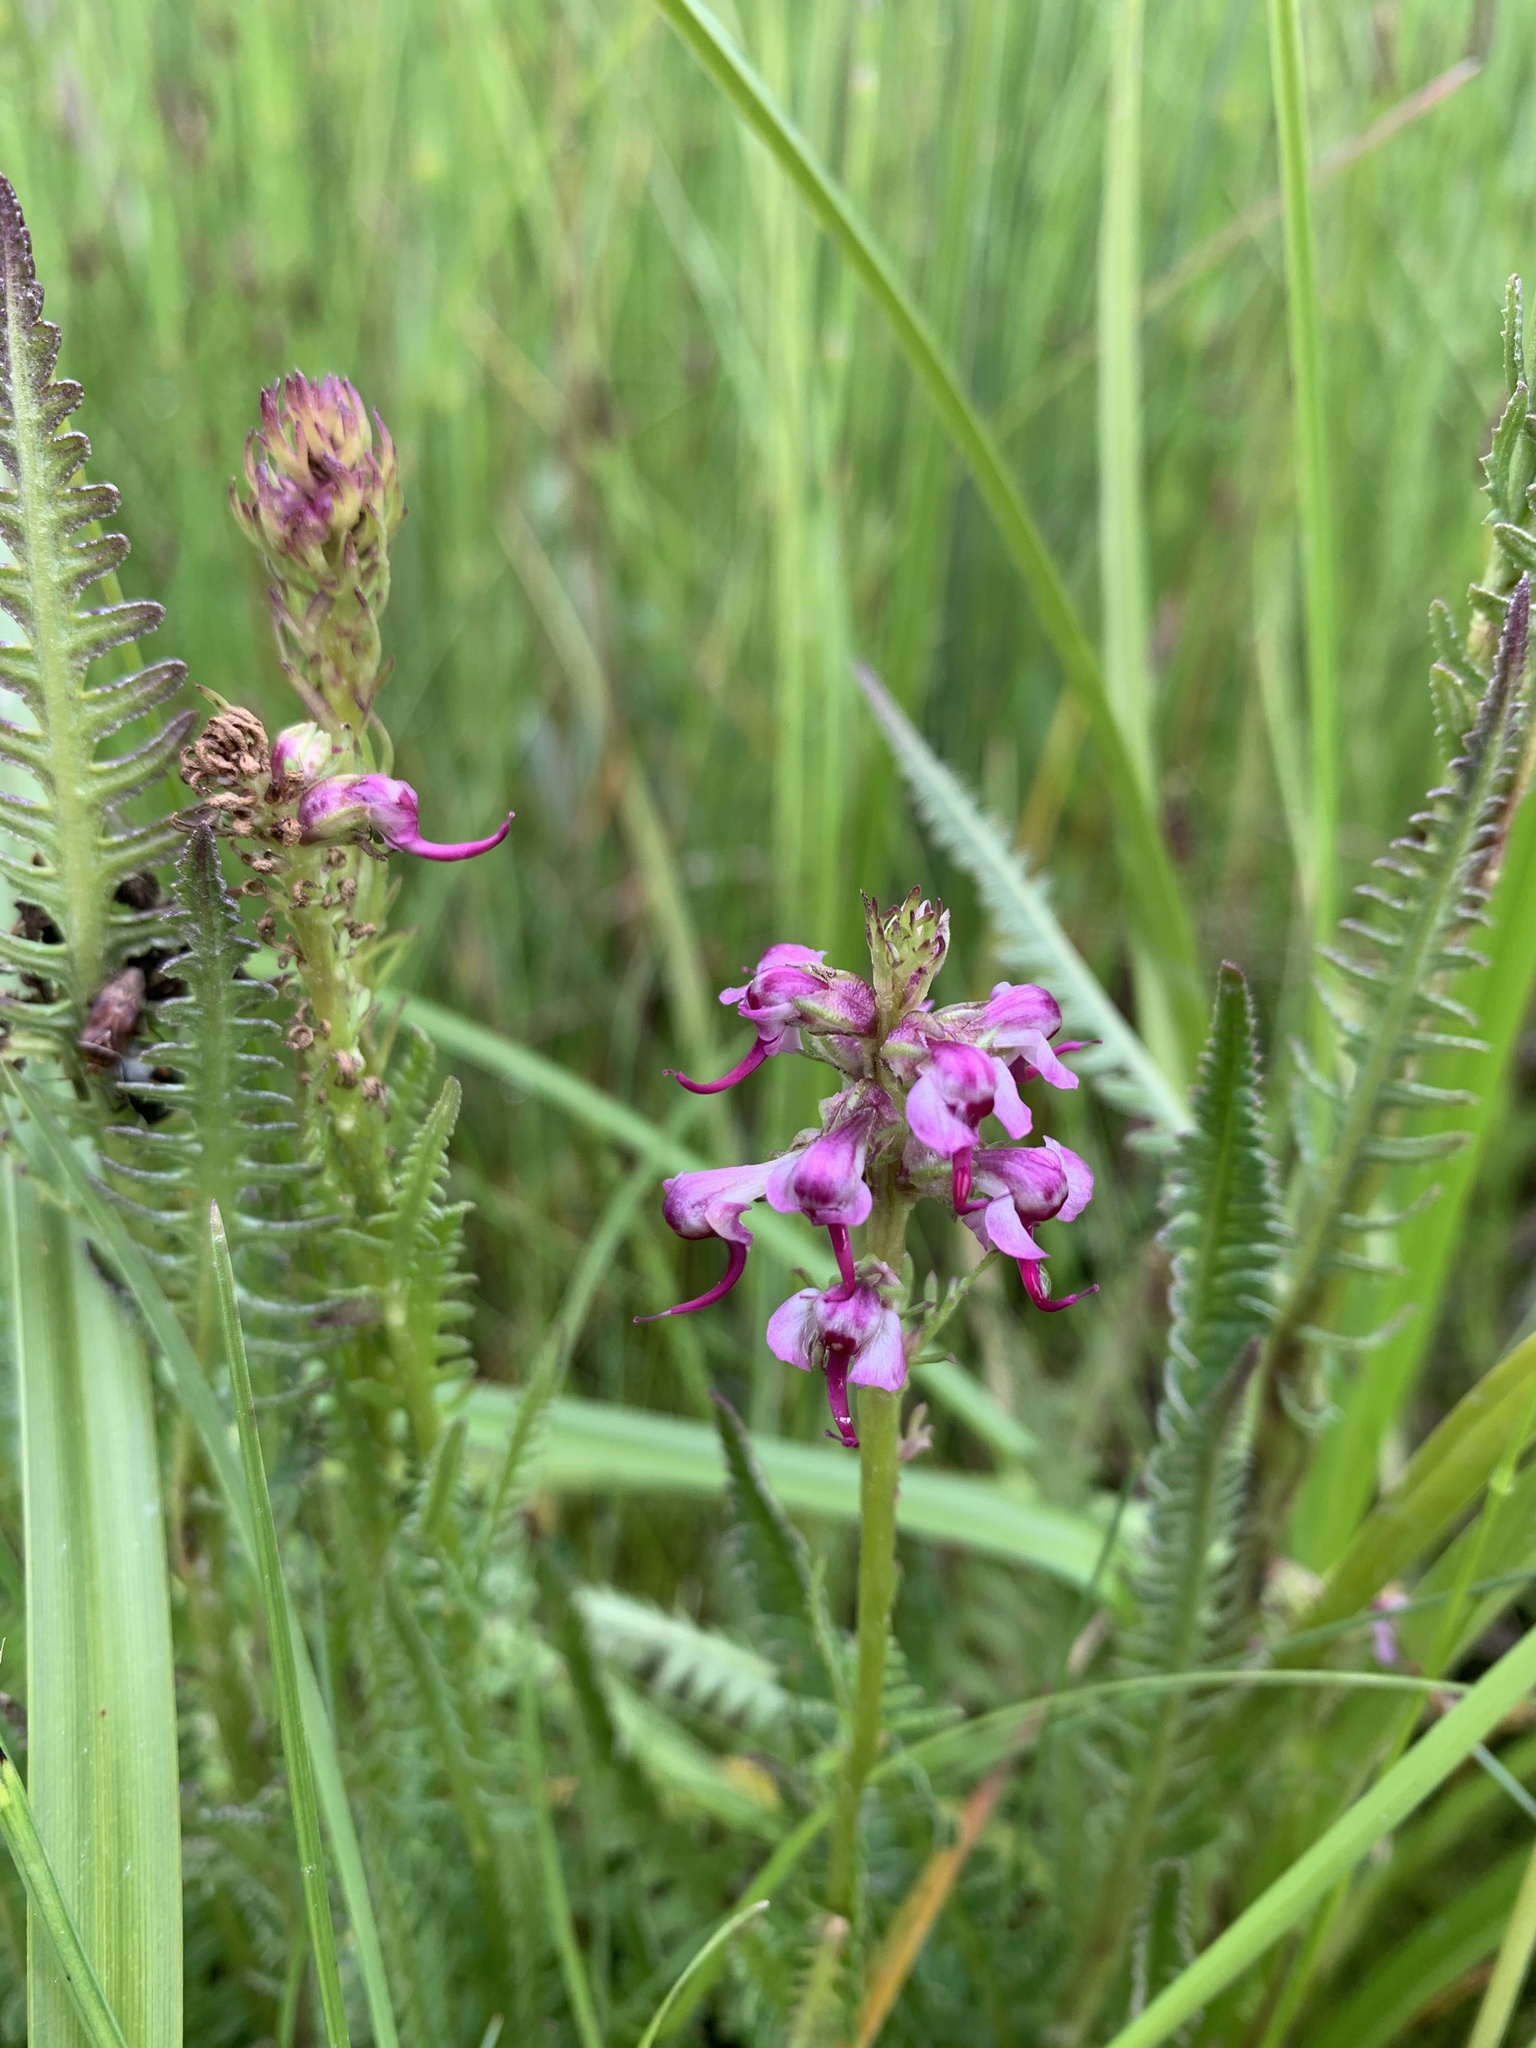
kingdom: Plantae
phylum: Tracheophyta
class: Magnoliopsida
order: Lamiales
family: Orobanchaceae
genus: Pedicularis
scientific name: Pedicularis groenlandica
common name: Elephant's-head
